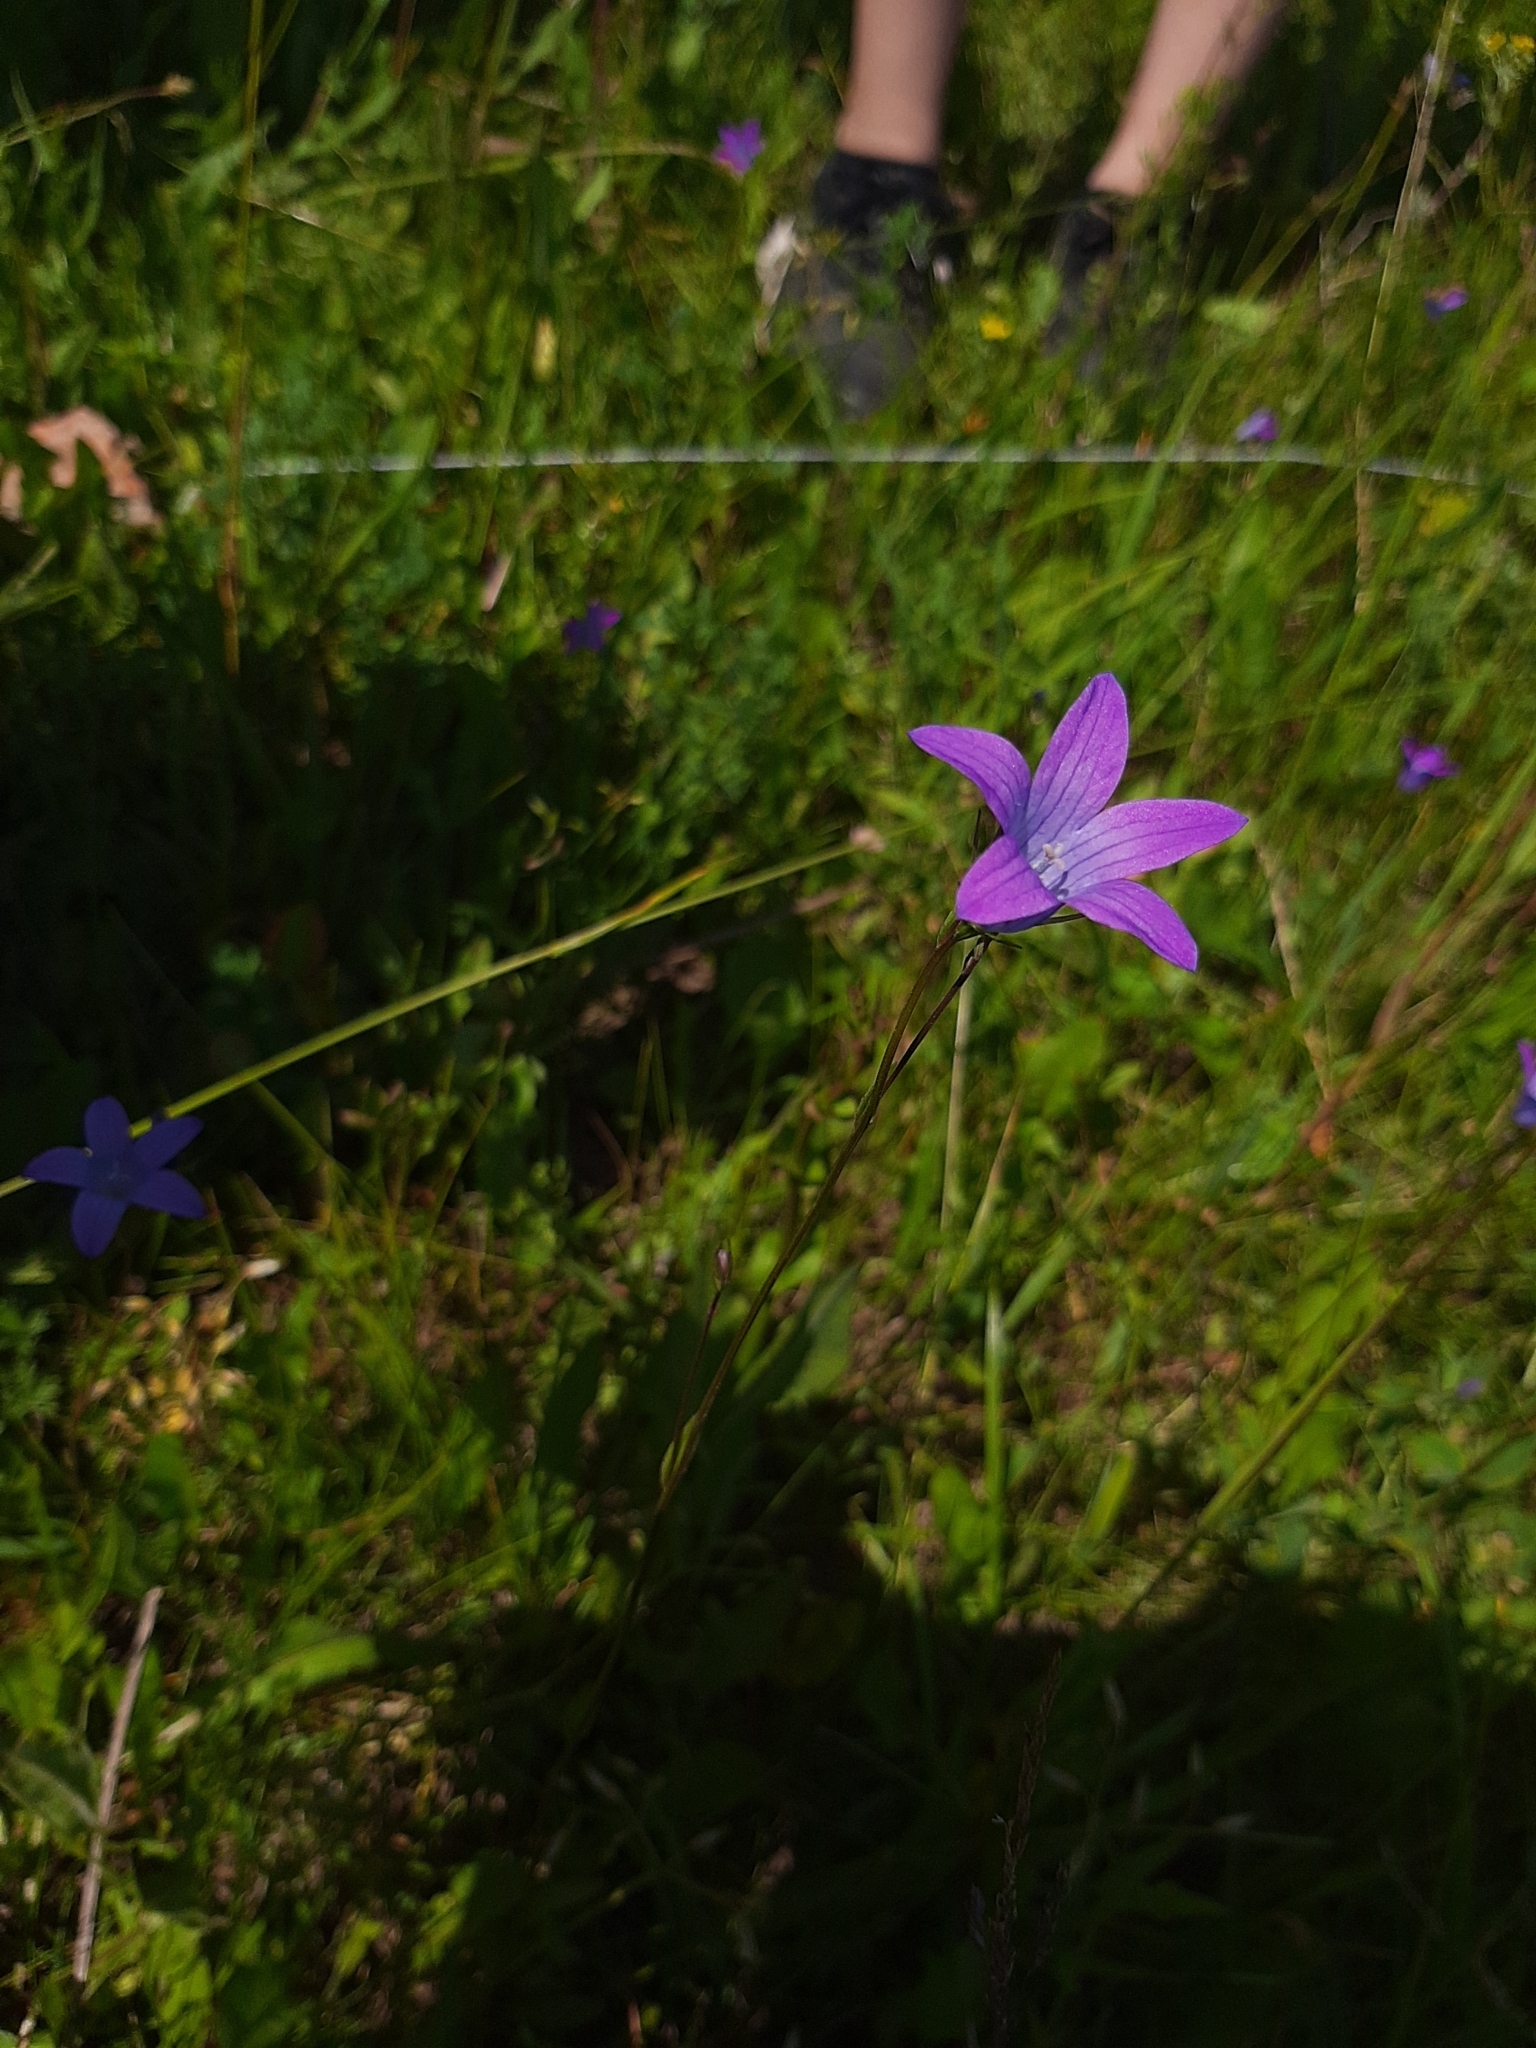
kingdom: Plantae
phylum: Tracheophyta
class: Magnoliopsida
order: Asterales
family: Campanulaceae
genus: Campanula
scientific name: Campanula patula
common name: Spreading bellflower
